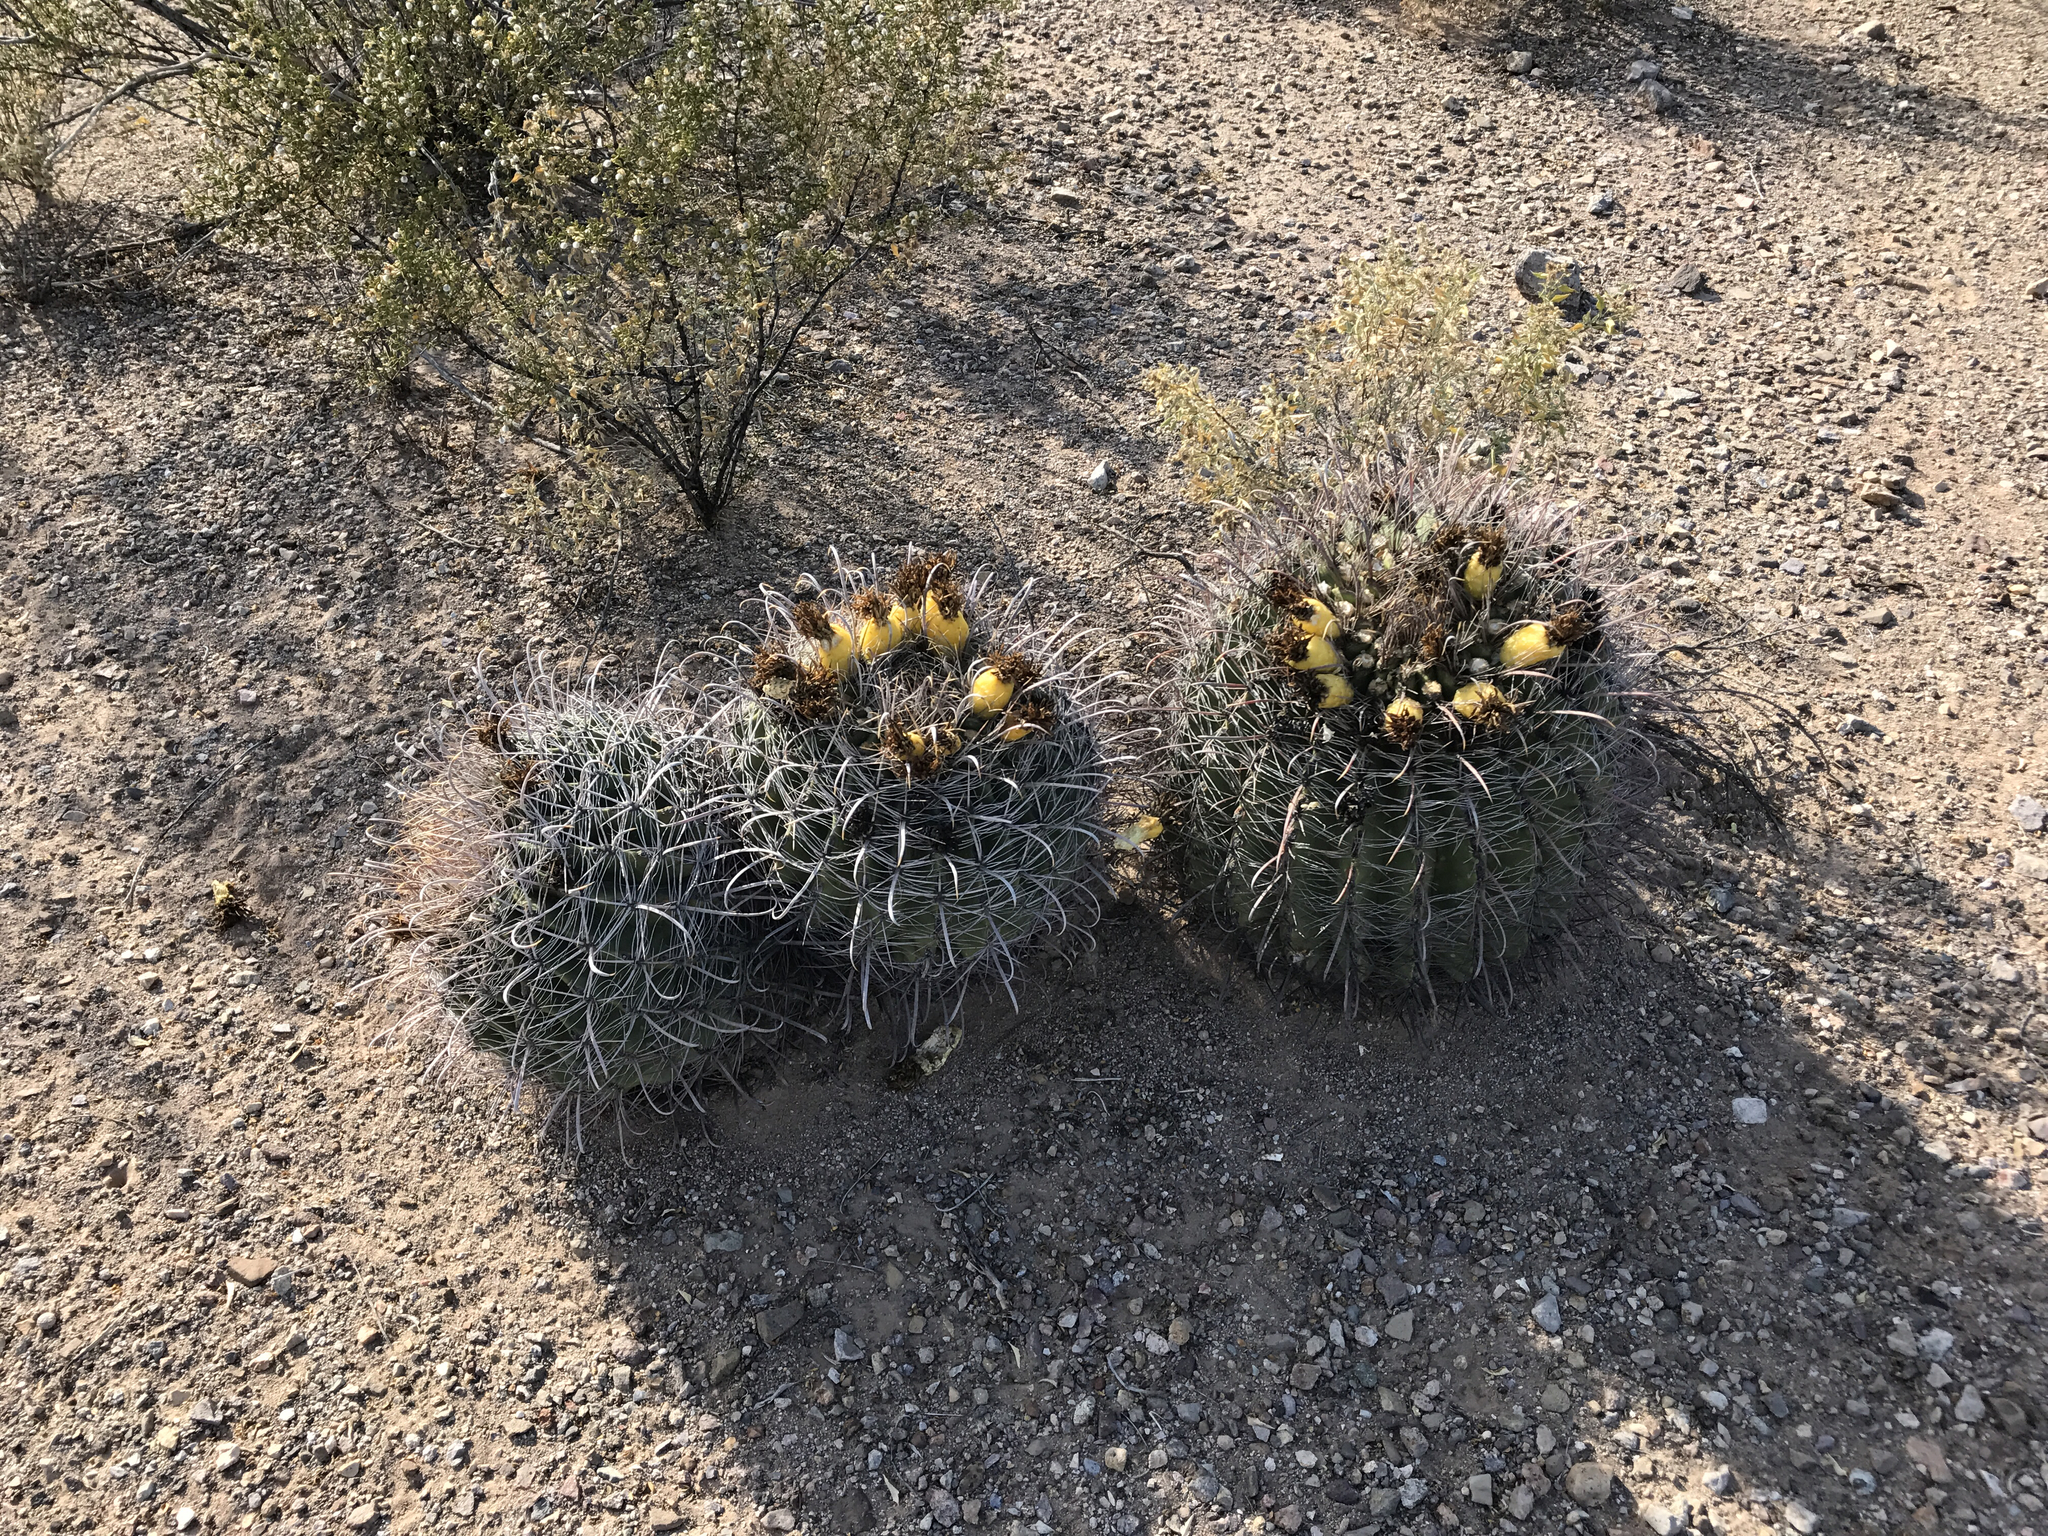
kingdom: Plantae
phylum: Tracheophyta
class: Magnoliopsida
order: Caryophyllales
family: Cactaceae
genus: Ferocactus
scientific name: Ferocactus wislizeni
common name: Candy barrel cactus
